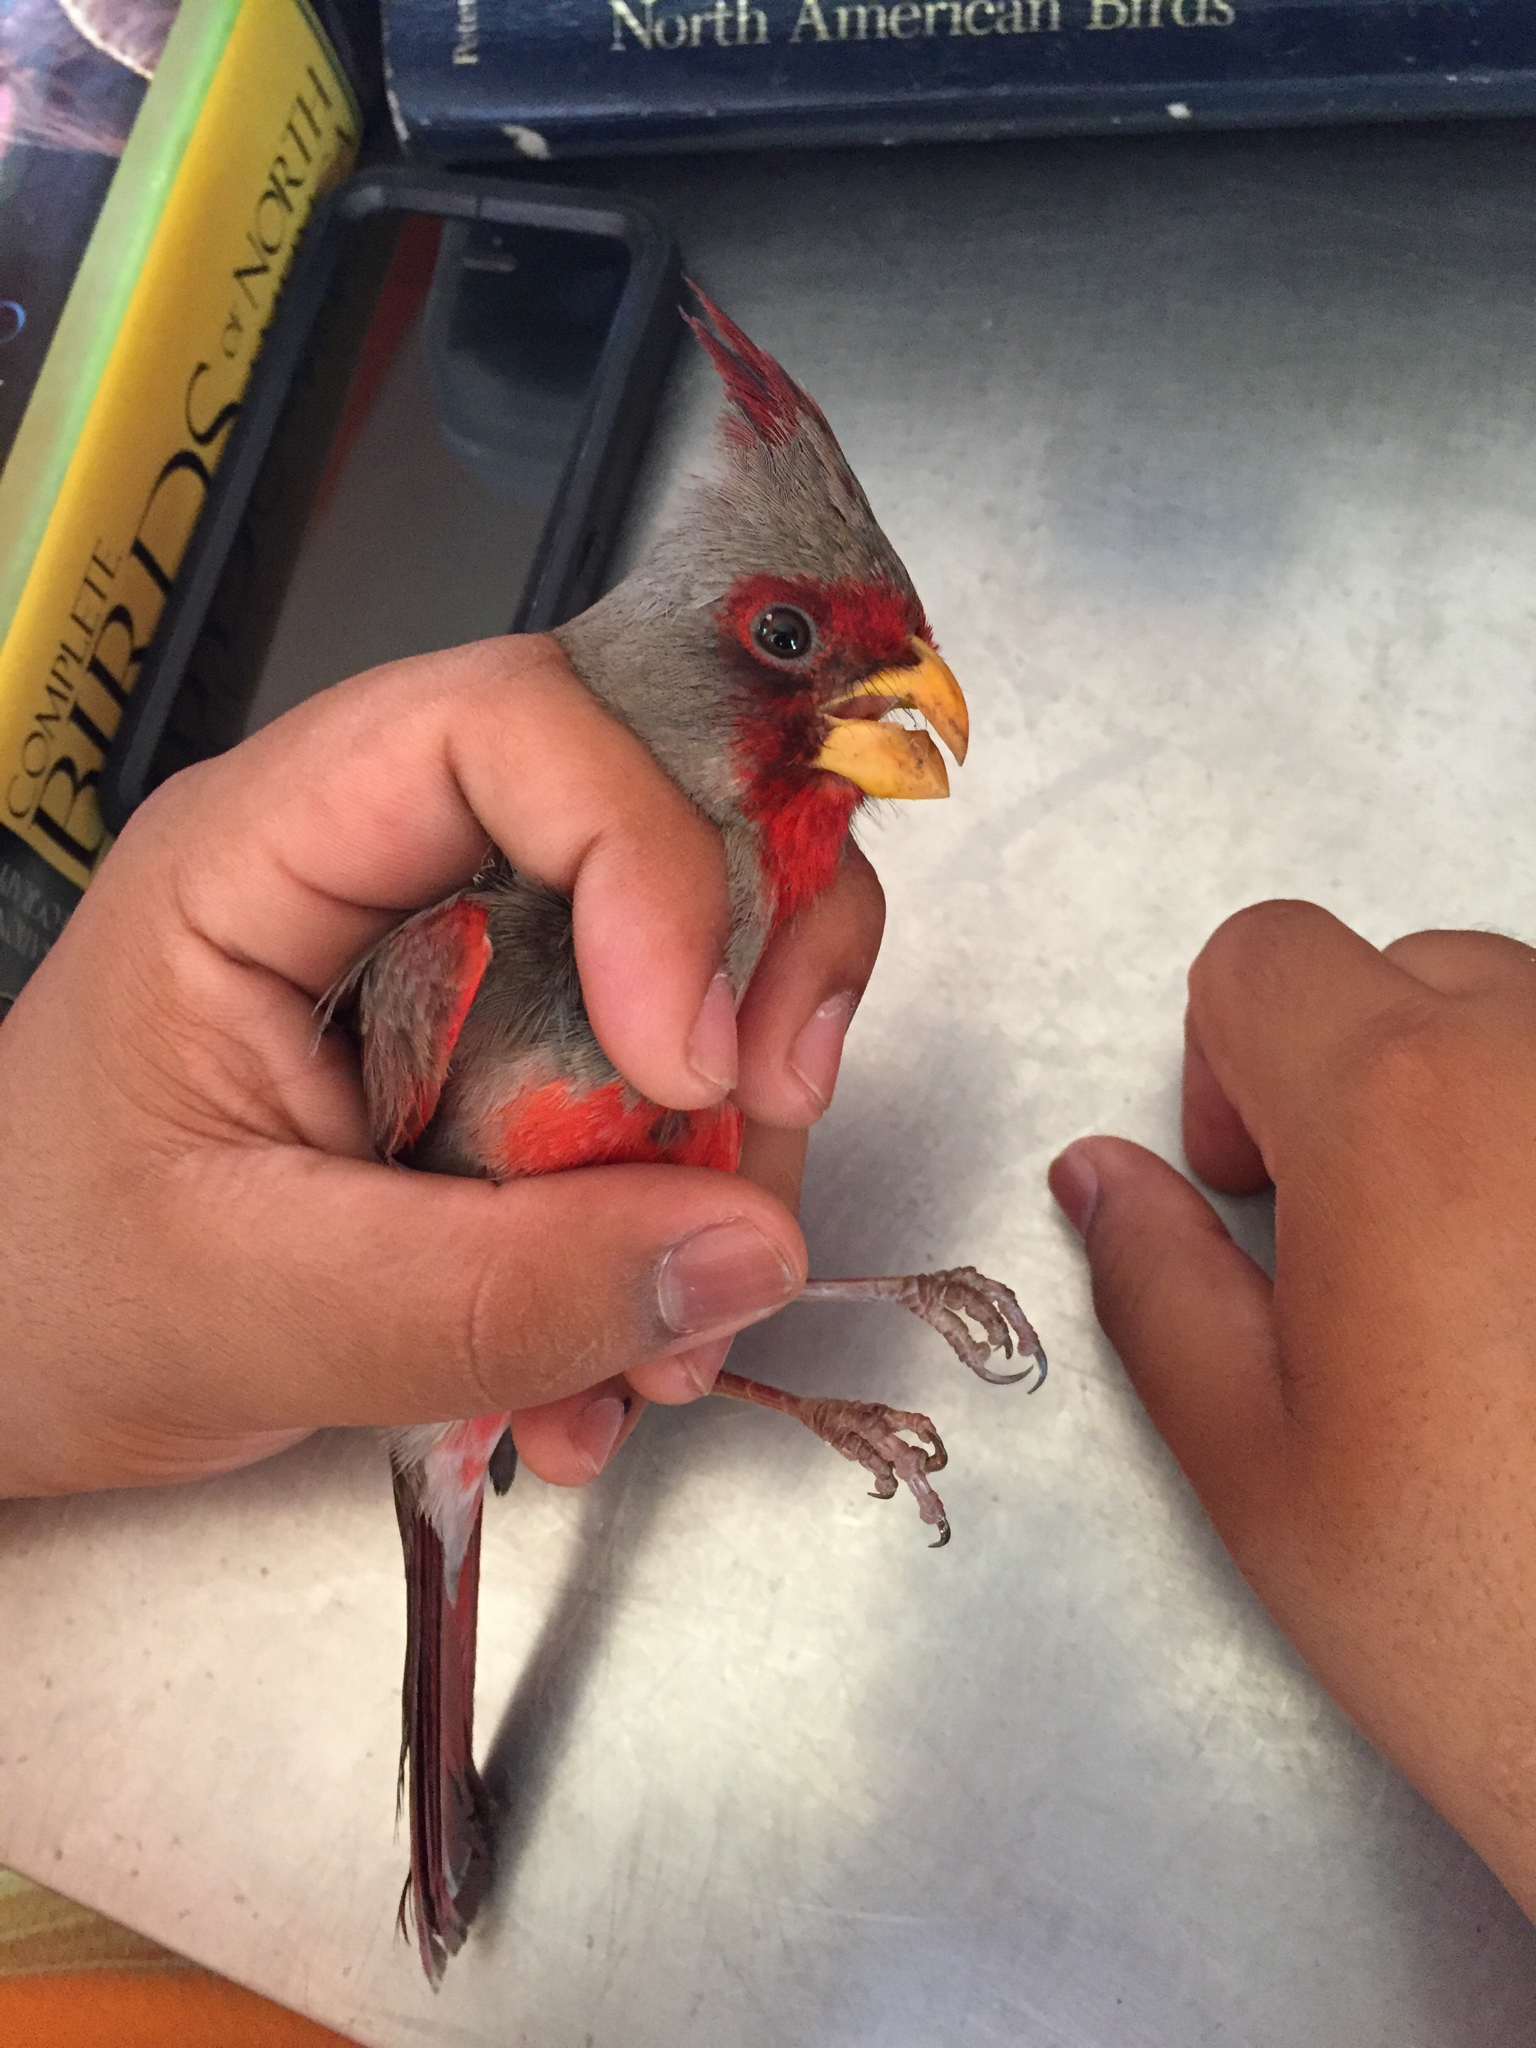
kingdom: Animalia
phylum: Chordata
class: Aves
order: Passeriformes
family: Cardinalidae
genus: Cardinalis
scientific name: Cardinalis sinuatus
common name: Pyrrhuloxia
